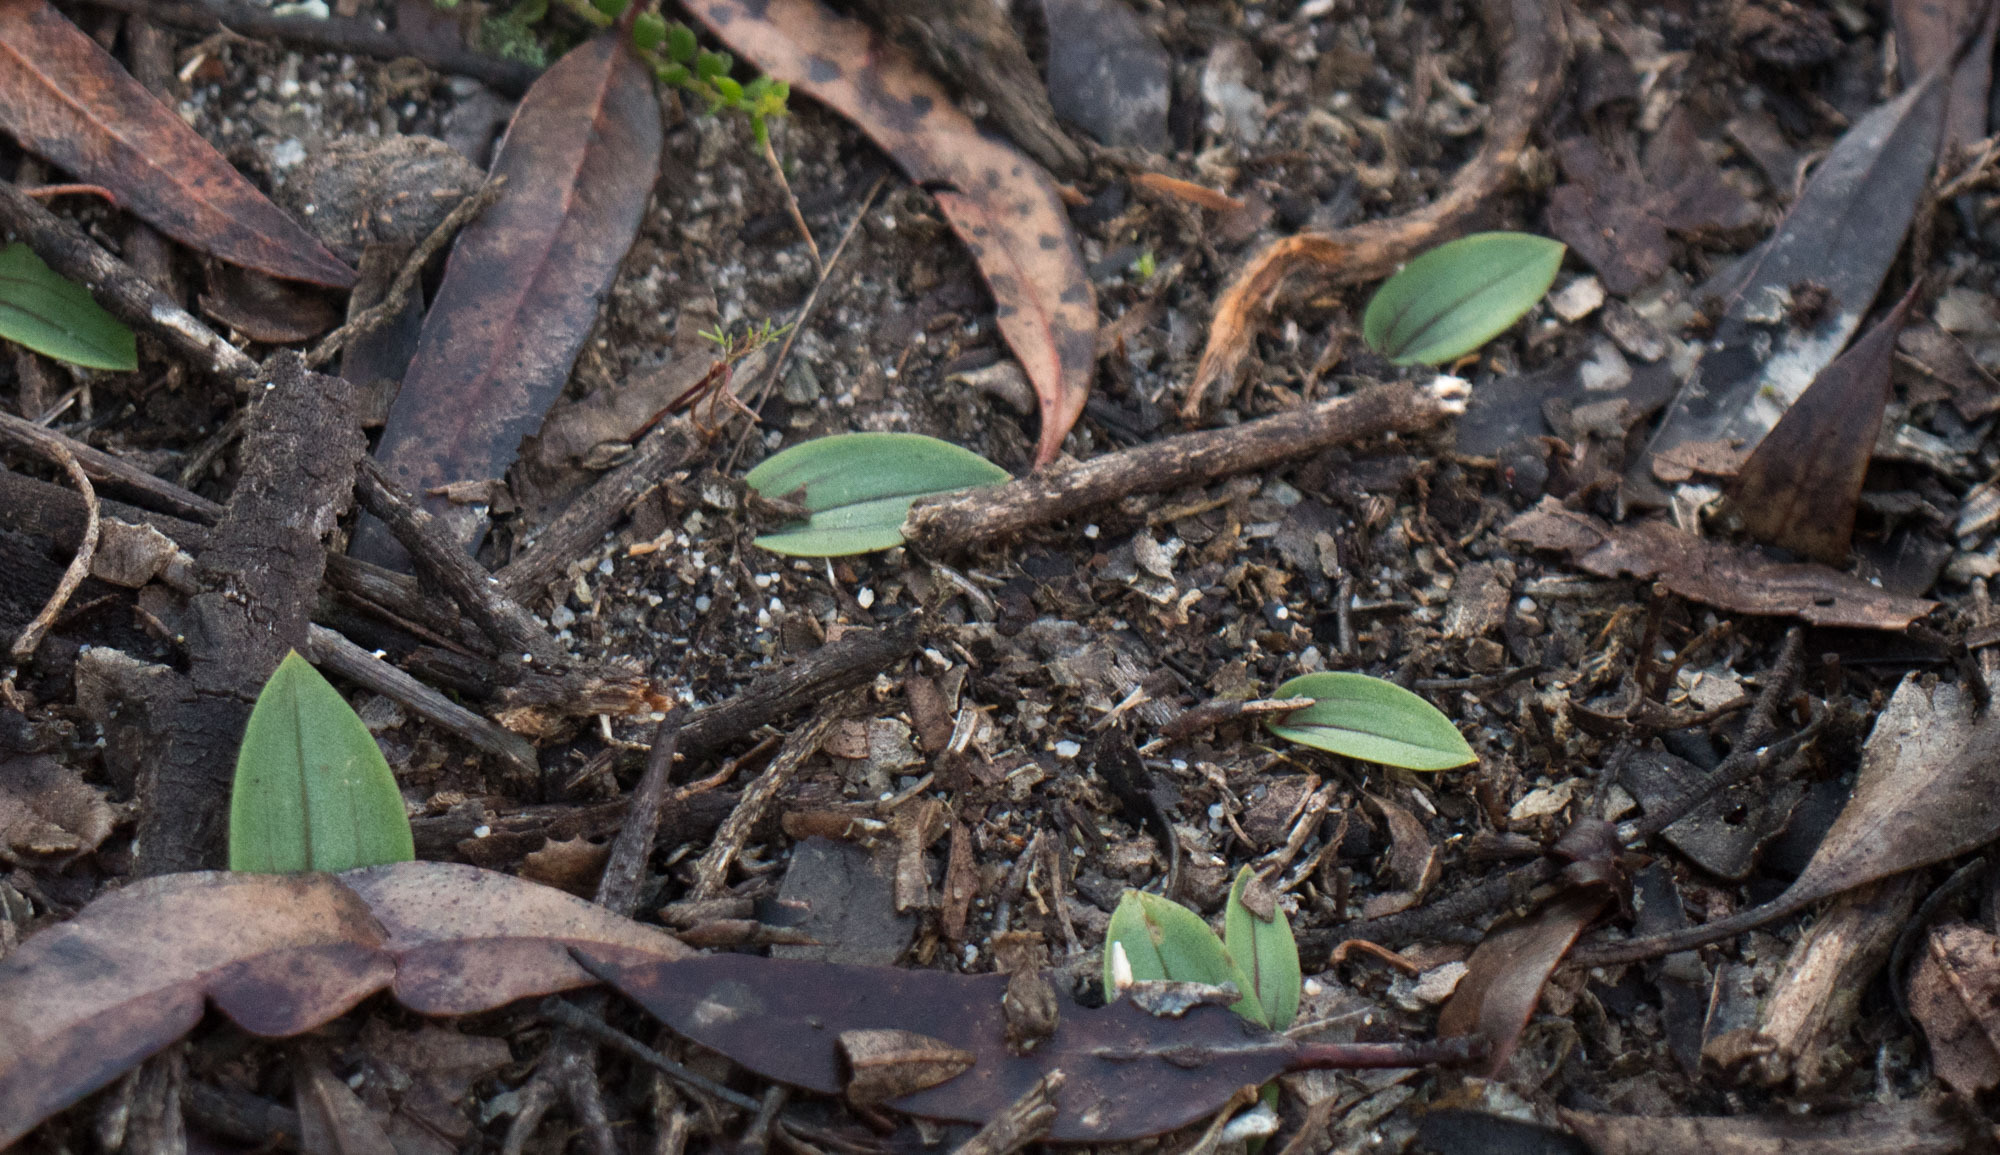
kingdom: Plantae
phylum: Tracheophyta
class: Liliopsida
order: Asparagales
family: Orchidaceae
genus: Leporella
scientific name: Leporella fimbriata
